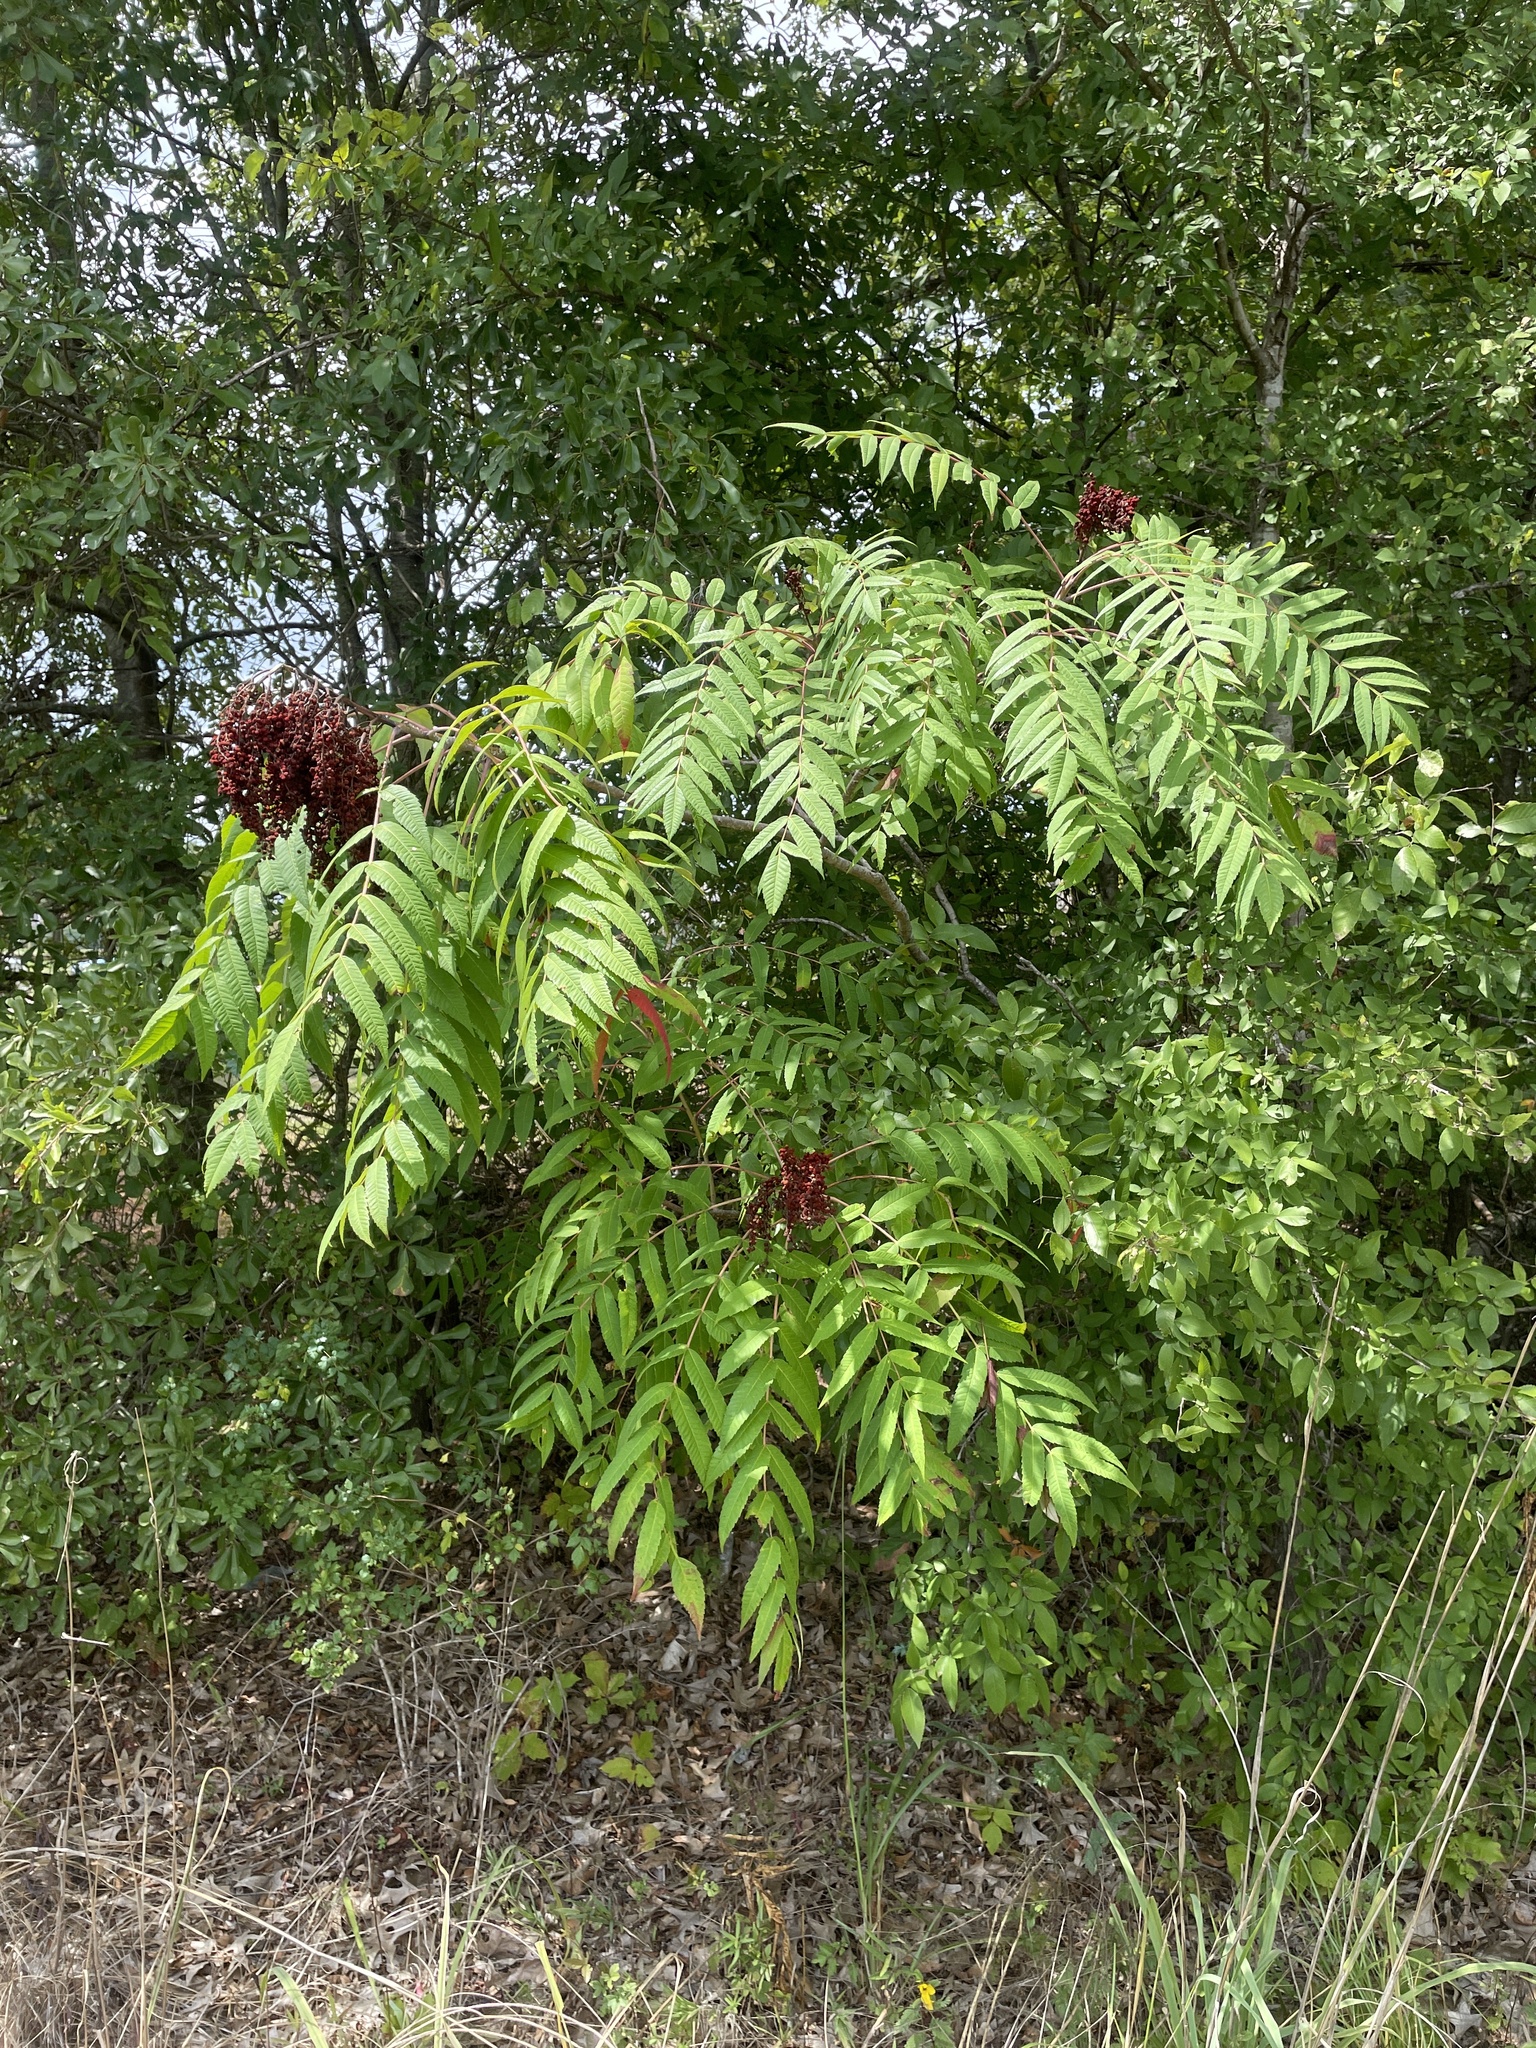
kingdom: Plantae
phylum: Tracheophyta
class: Magnoliopsida
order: Sapindales
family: Anacardiaceae
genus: Rhus
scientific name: Rhus glabra
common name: Scarlet sumac
